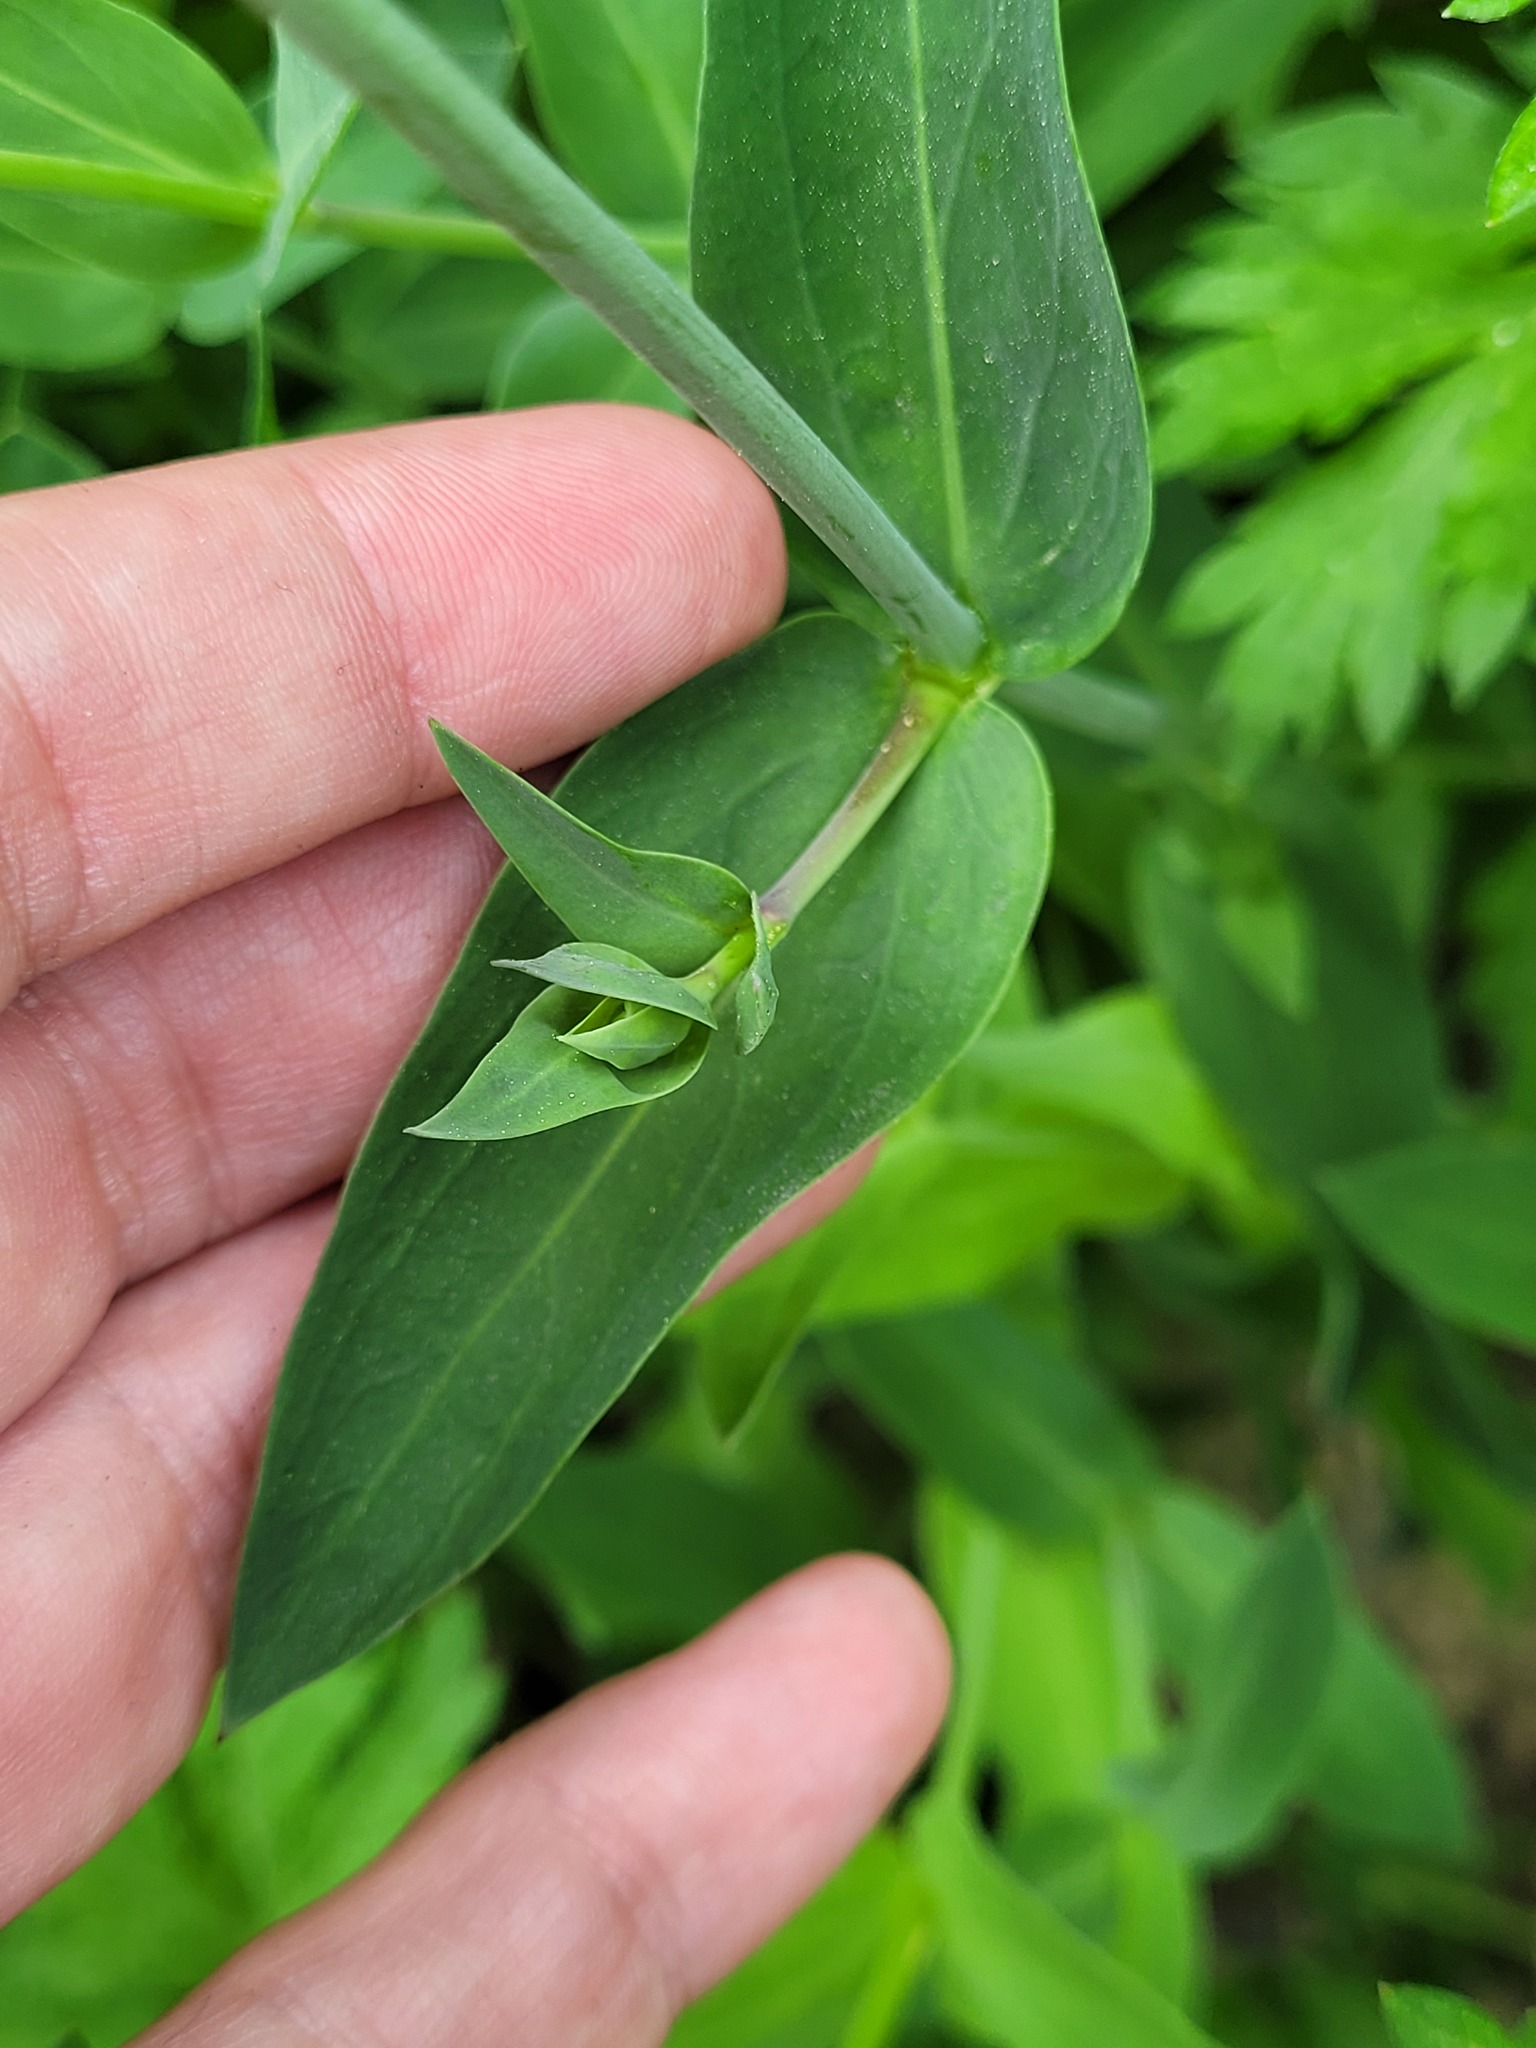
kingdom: Plantae
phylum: Tracheophyta
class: Magnoliopsida
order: Caryophyllales
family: Caryophyllaceae
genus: Silene
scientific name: Silene vulgaris
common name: Bladder campion
